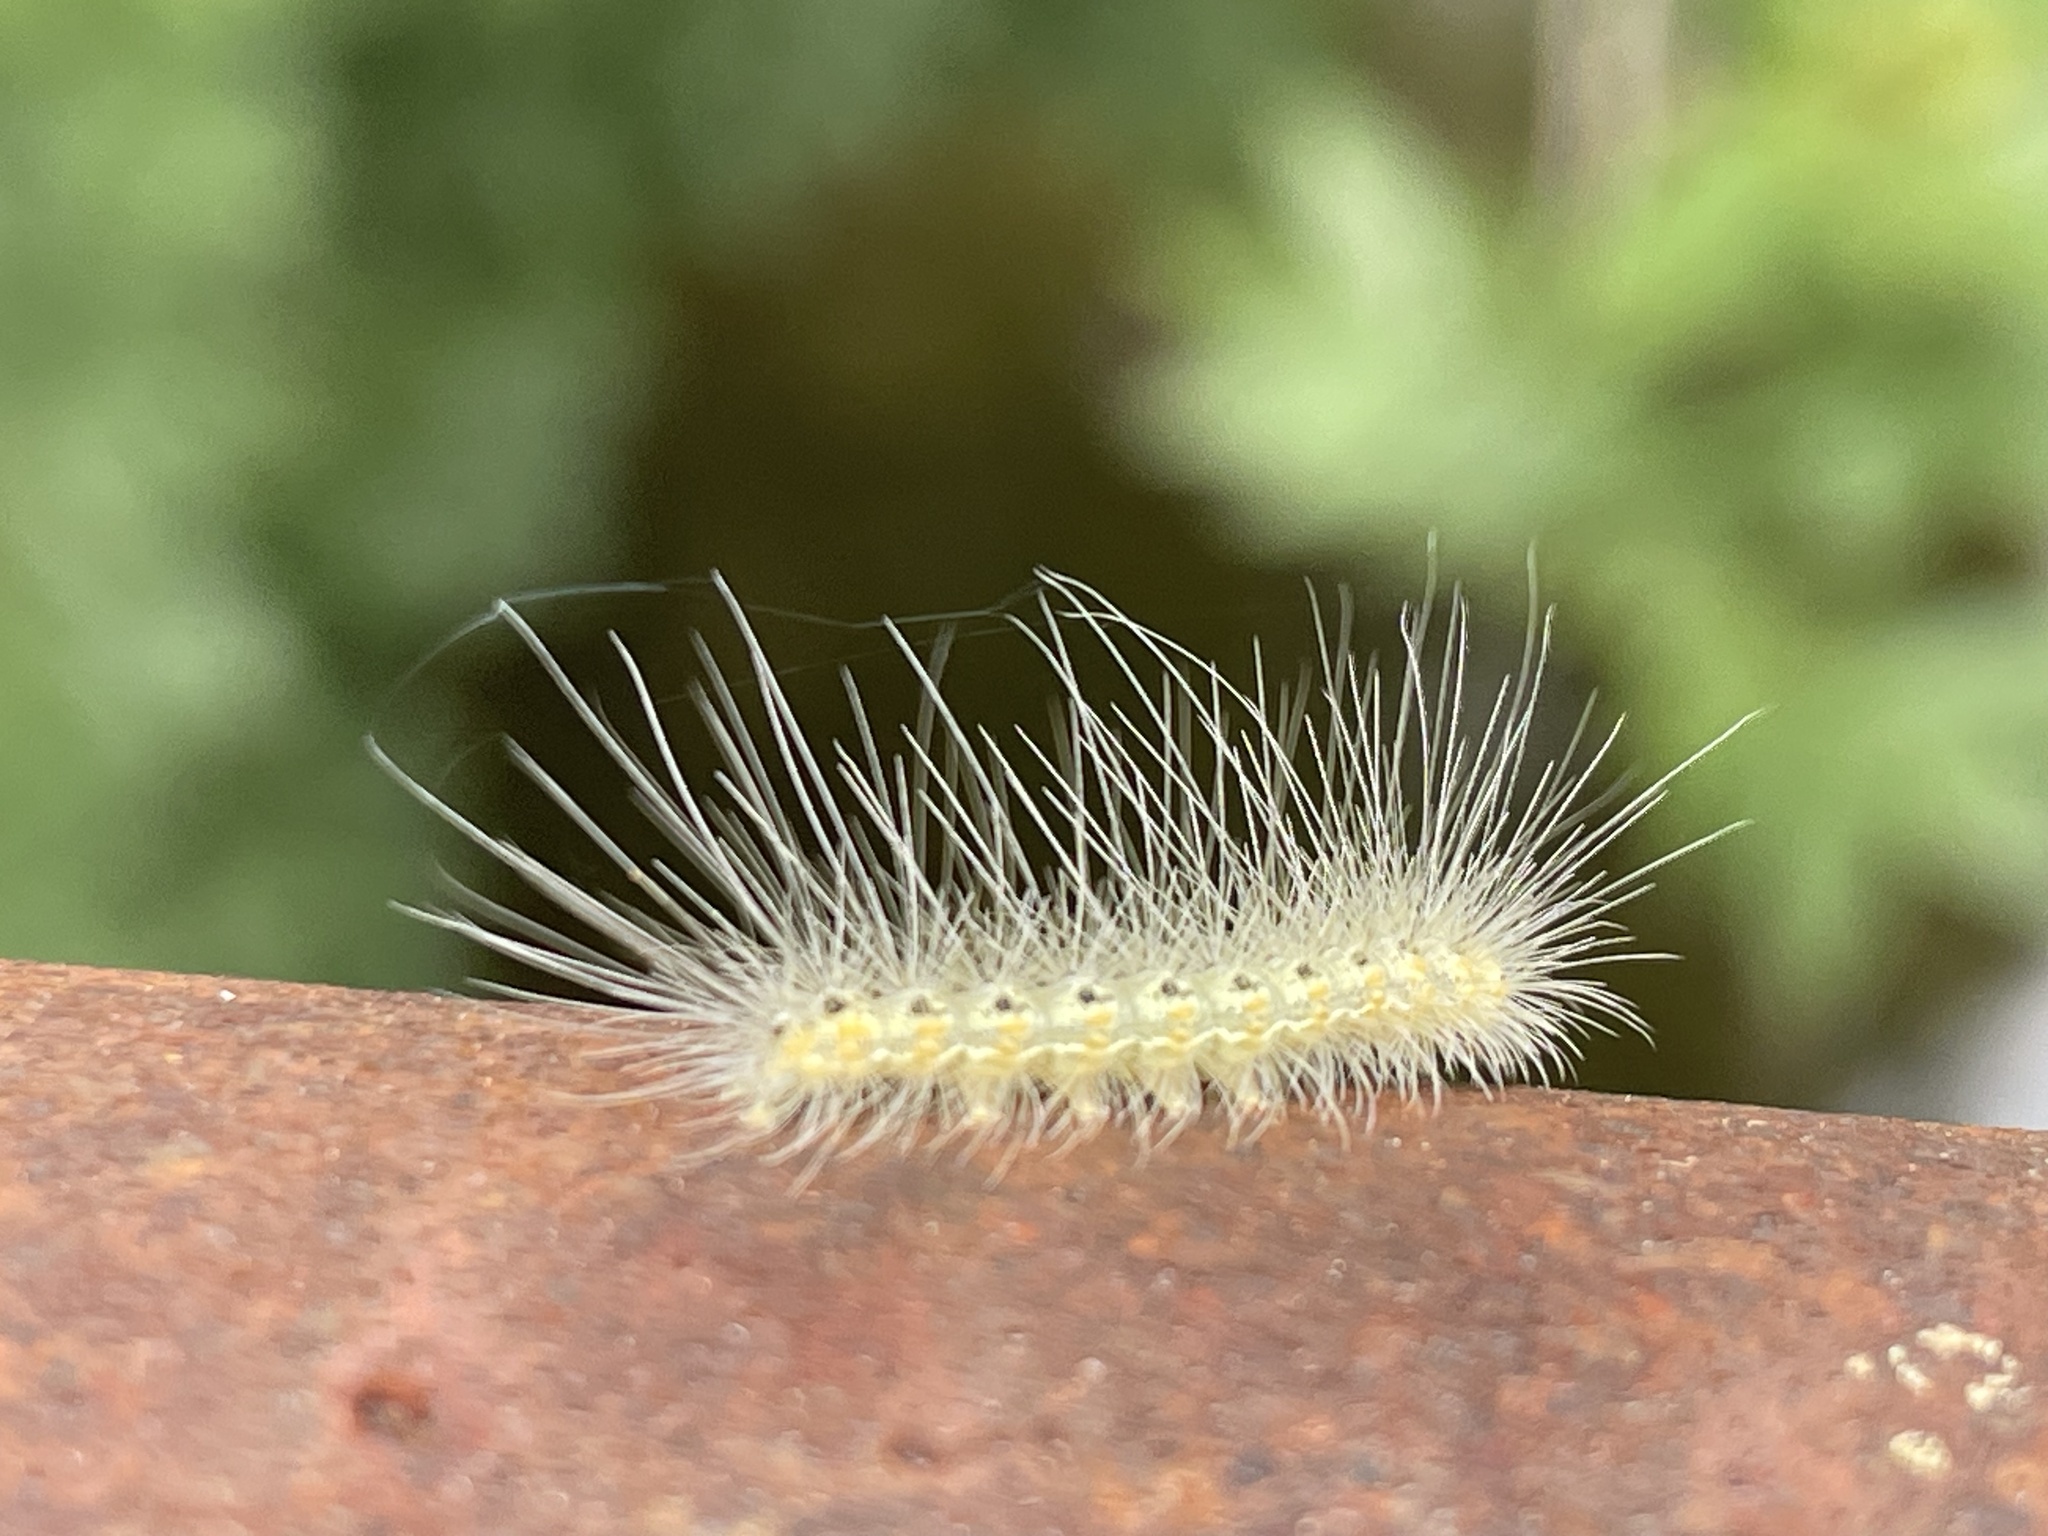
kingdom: Animalia
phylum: Arthropoda
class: Insecta
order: Lepidoptera
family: Erebidae
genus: Hyphantria
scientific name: Hyphantria cunea
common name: American white moth
